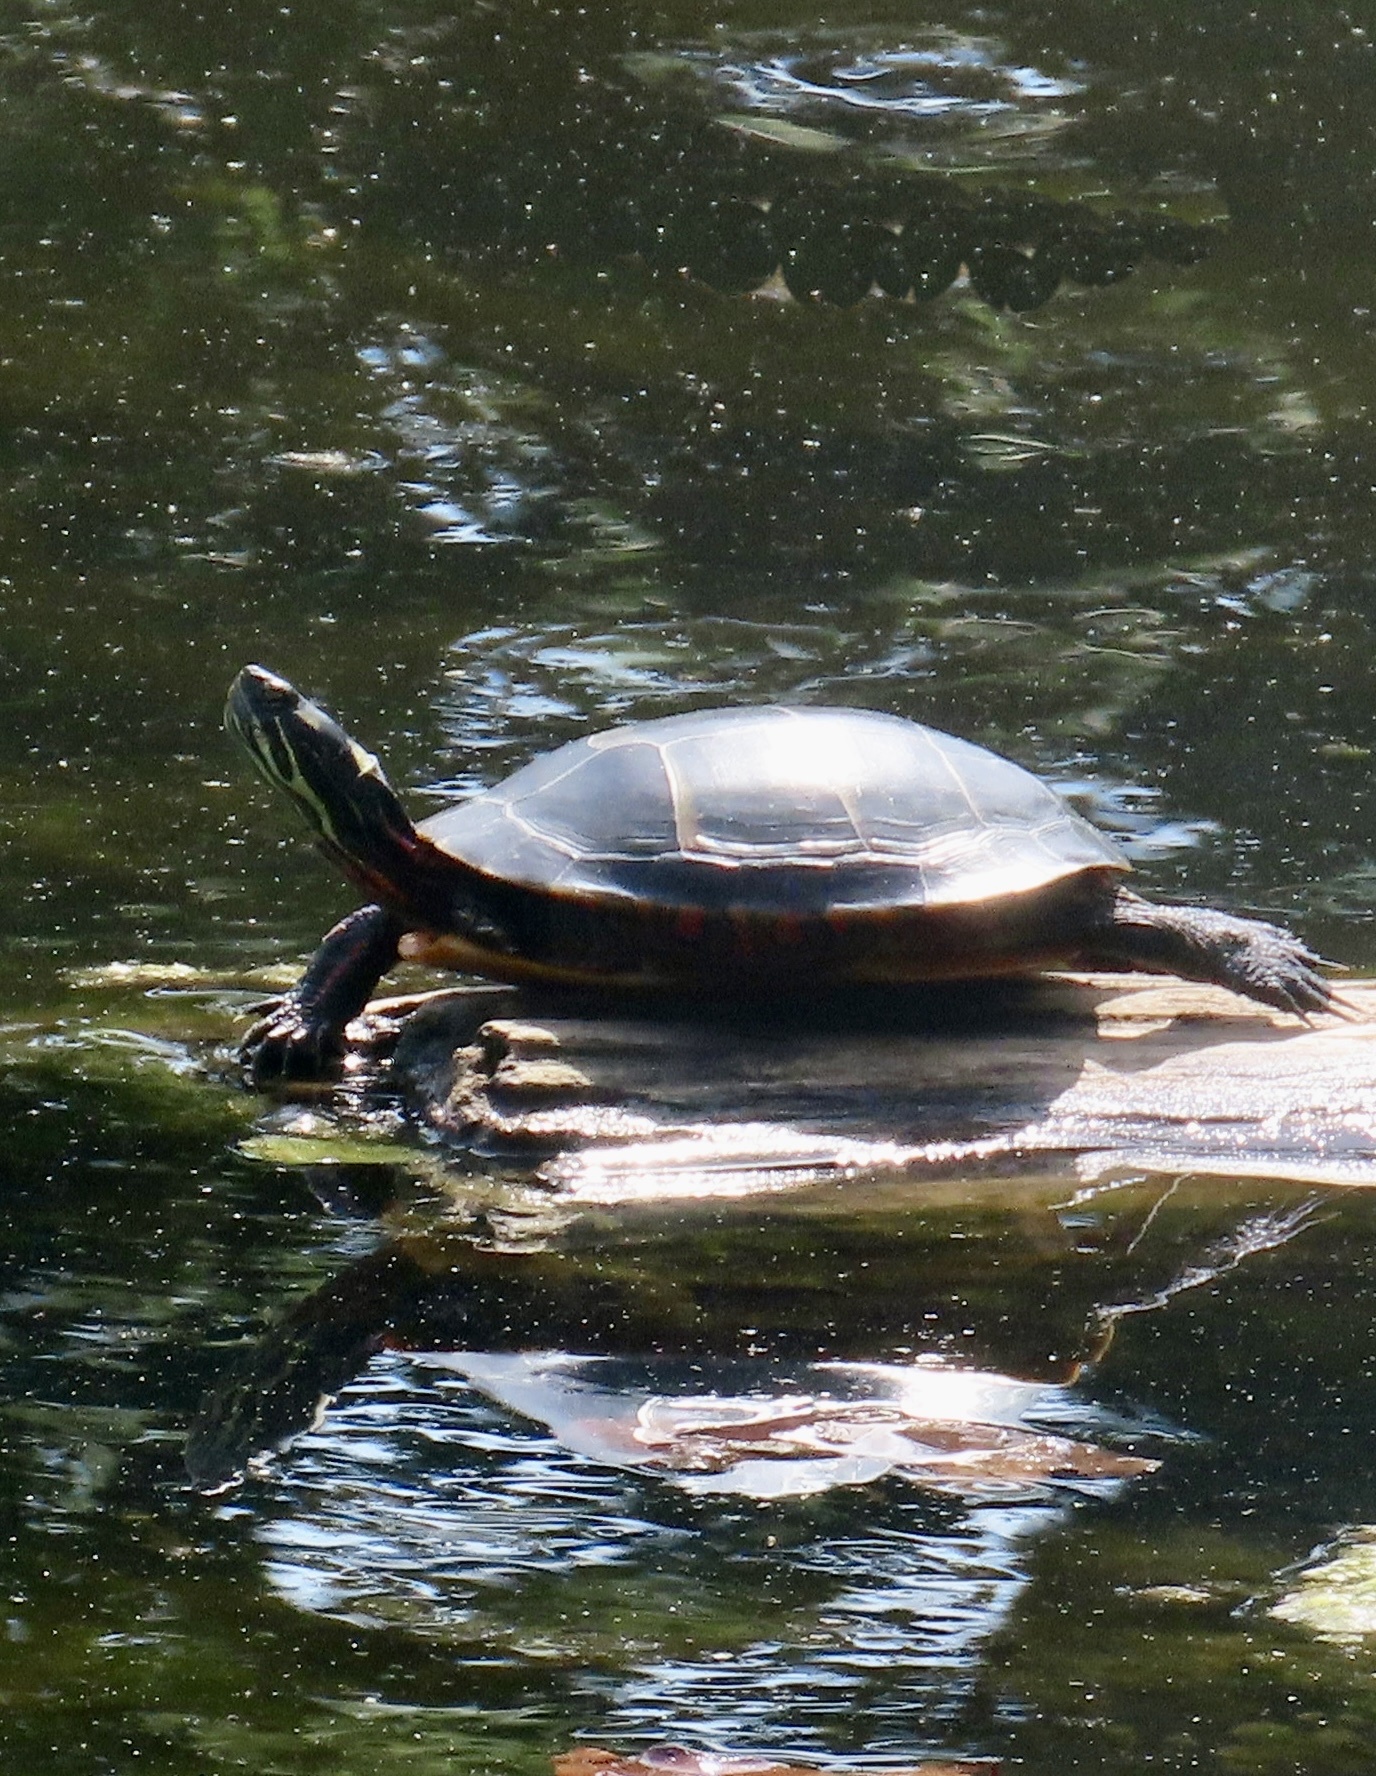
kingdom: Animalia
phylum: Chordata
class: Testudines
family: Emydidae
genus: Chrysemys
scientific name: Chrysemys picta
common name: Painted turtle
